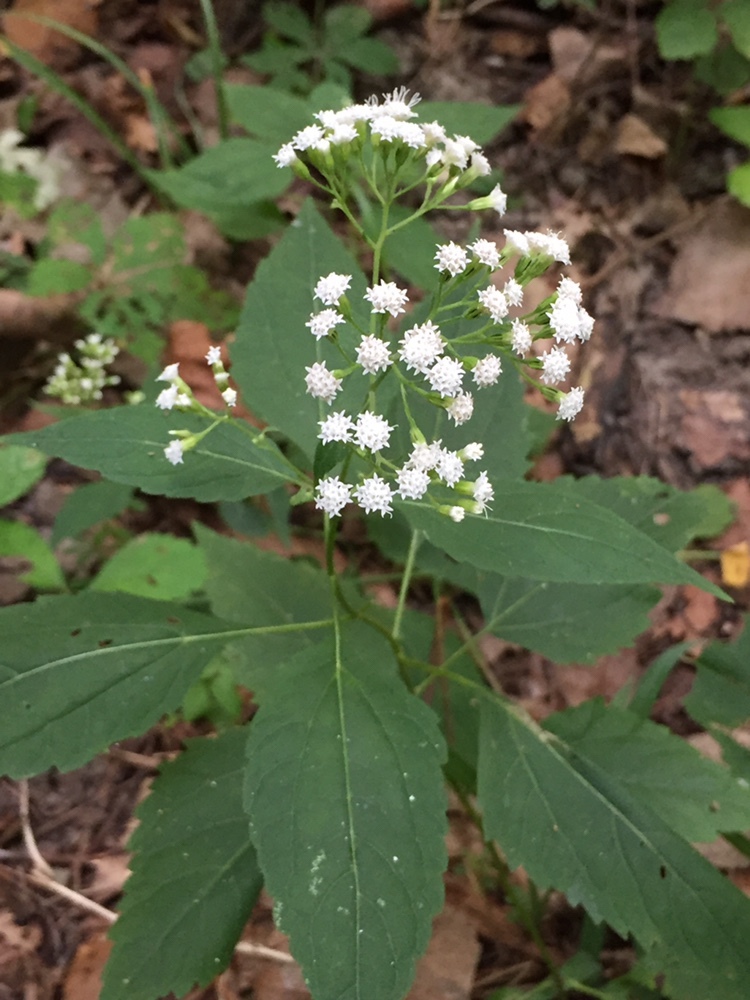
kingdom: Plantae
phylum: Tracheophyta
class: Magnoliopsida
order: Asterales
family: Asteraceae
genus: Ageratina
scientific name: Ageratina altissima
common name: White snakeroot
